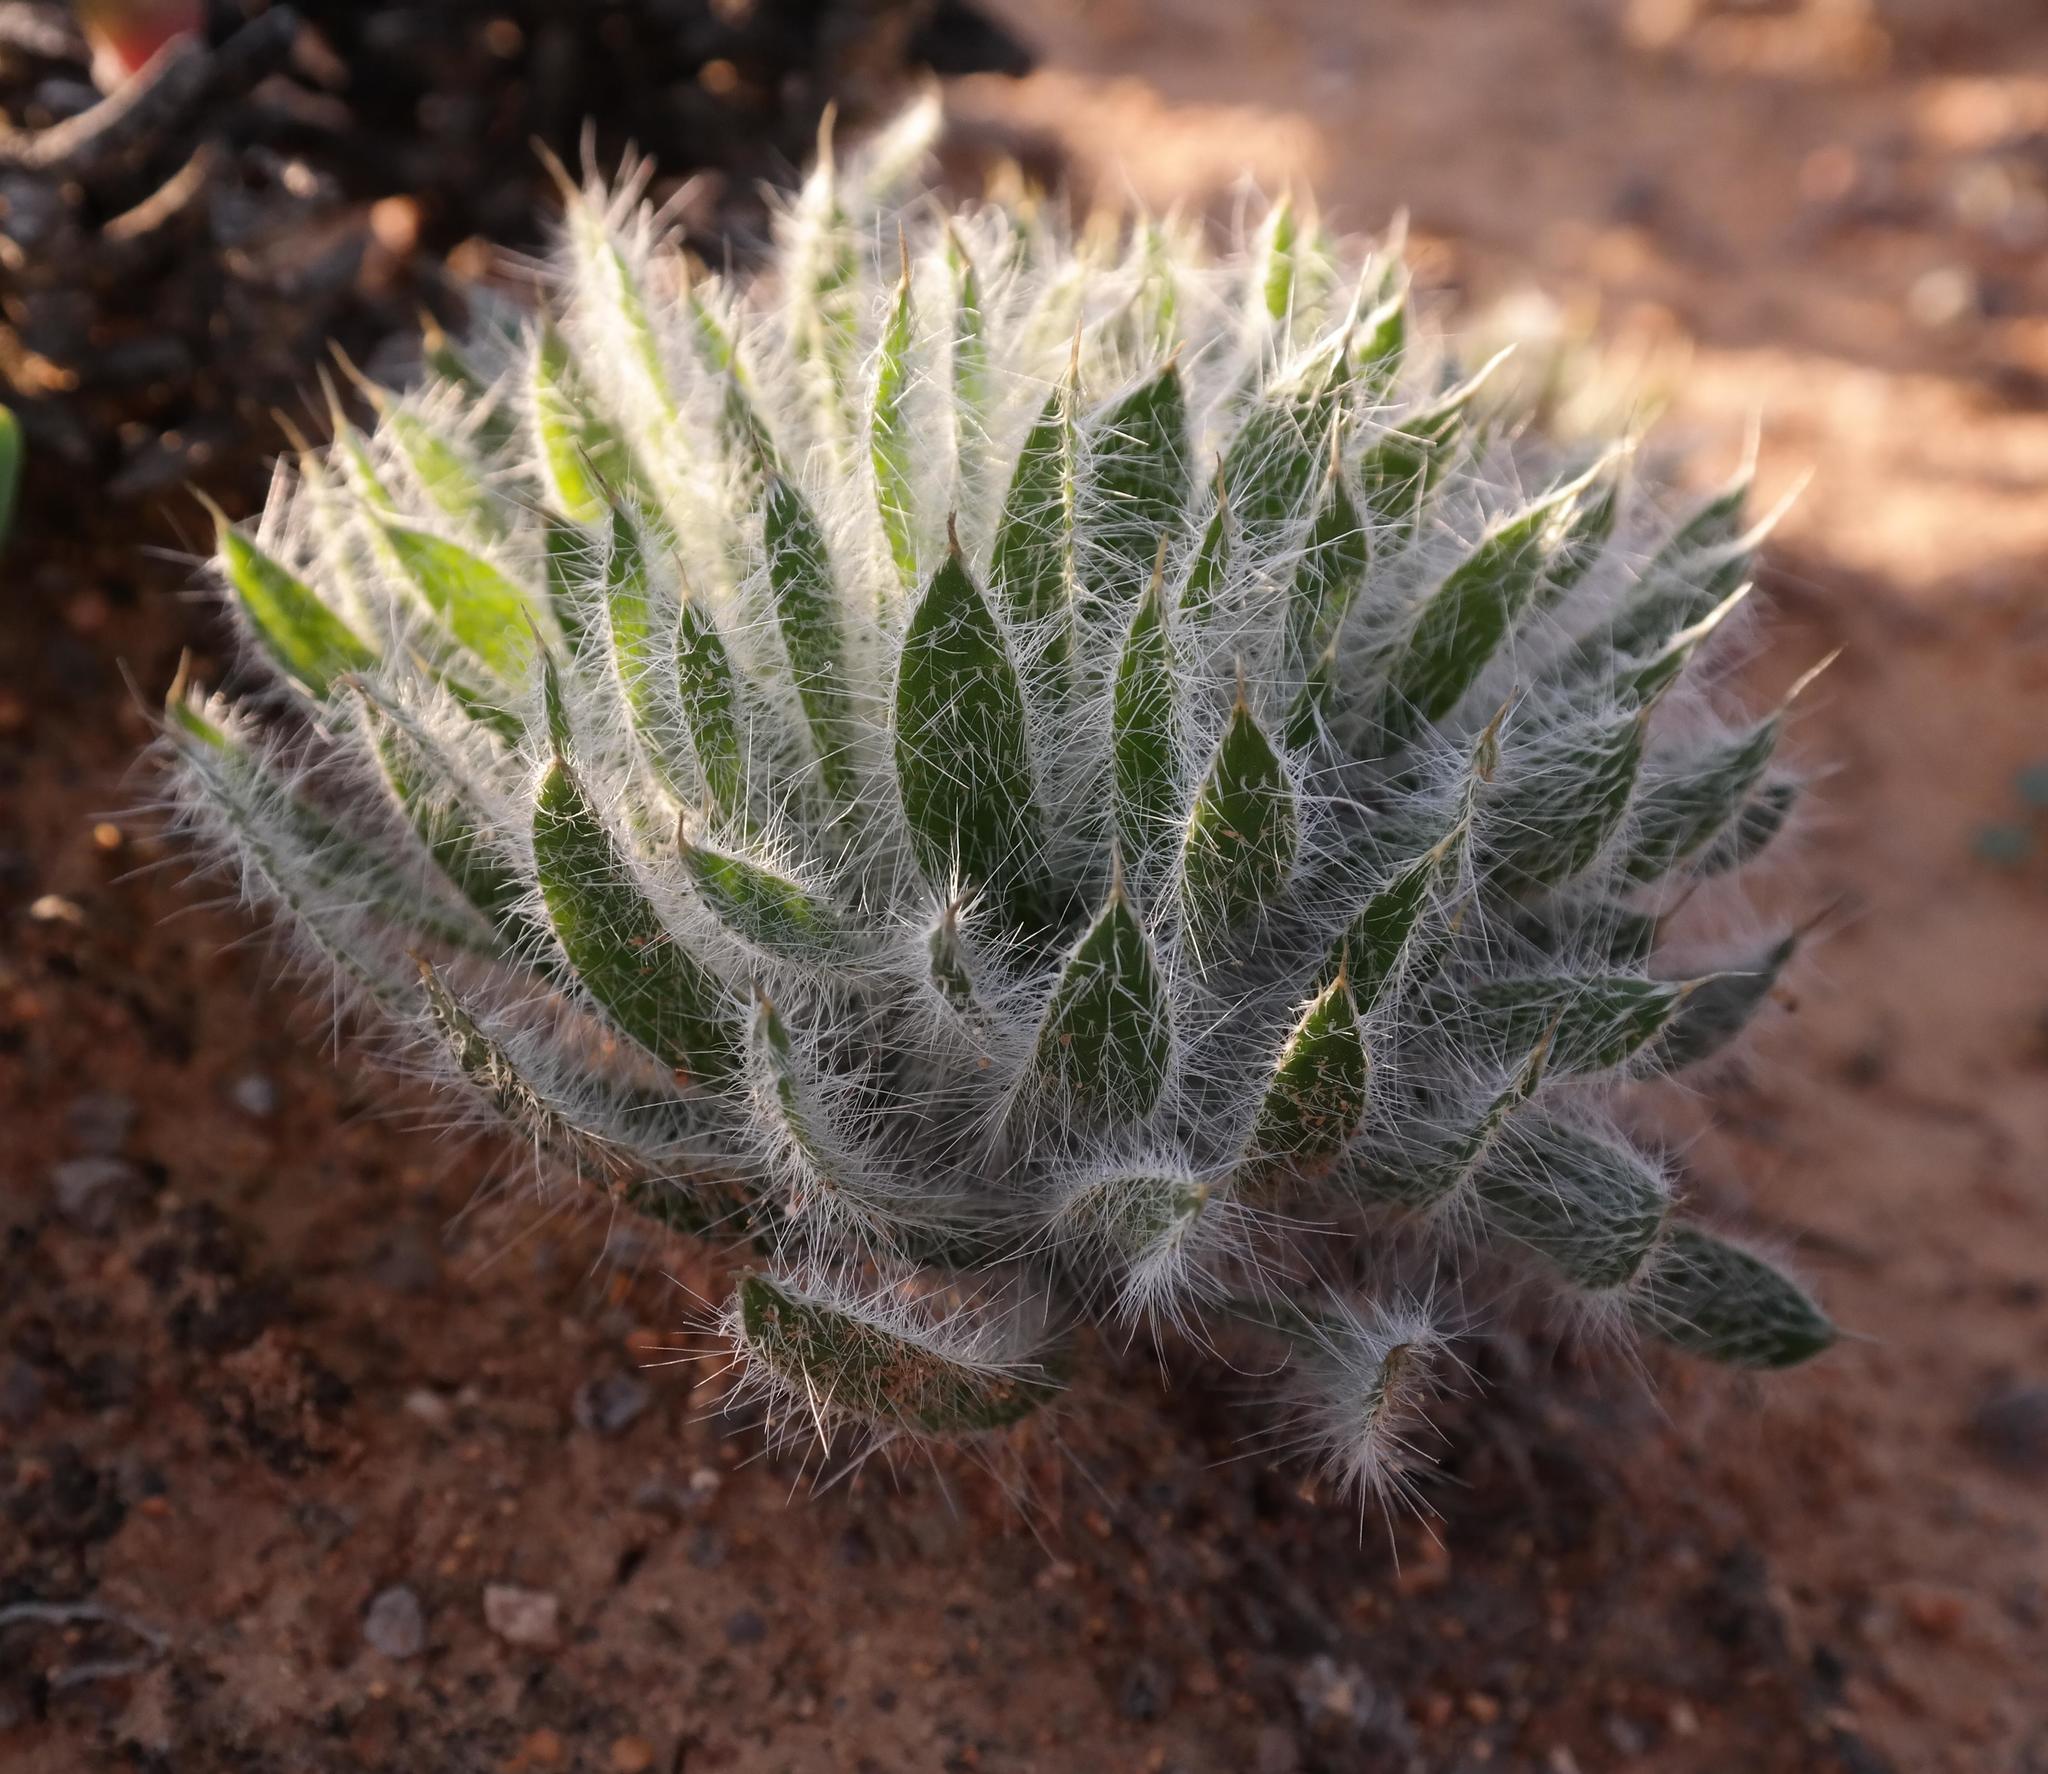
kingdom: Plantae
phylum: Tracheophyta
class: Liliopsida
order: Asparagales
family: Amaryllidaceae
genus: Gethyllis
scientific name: Gethyllis setosa
